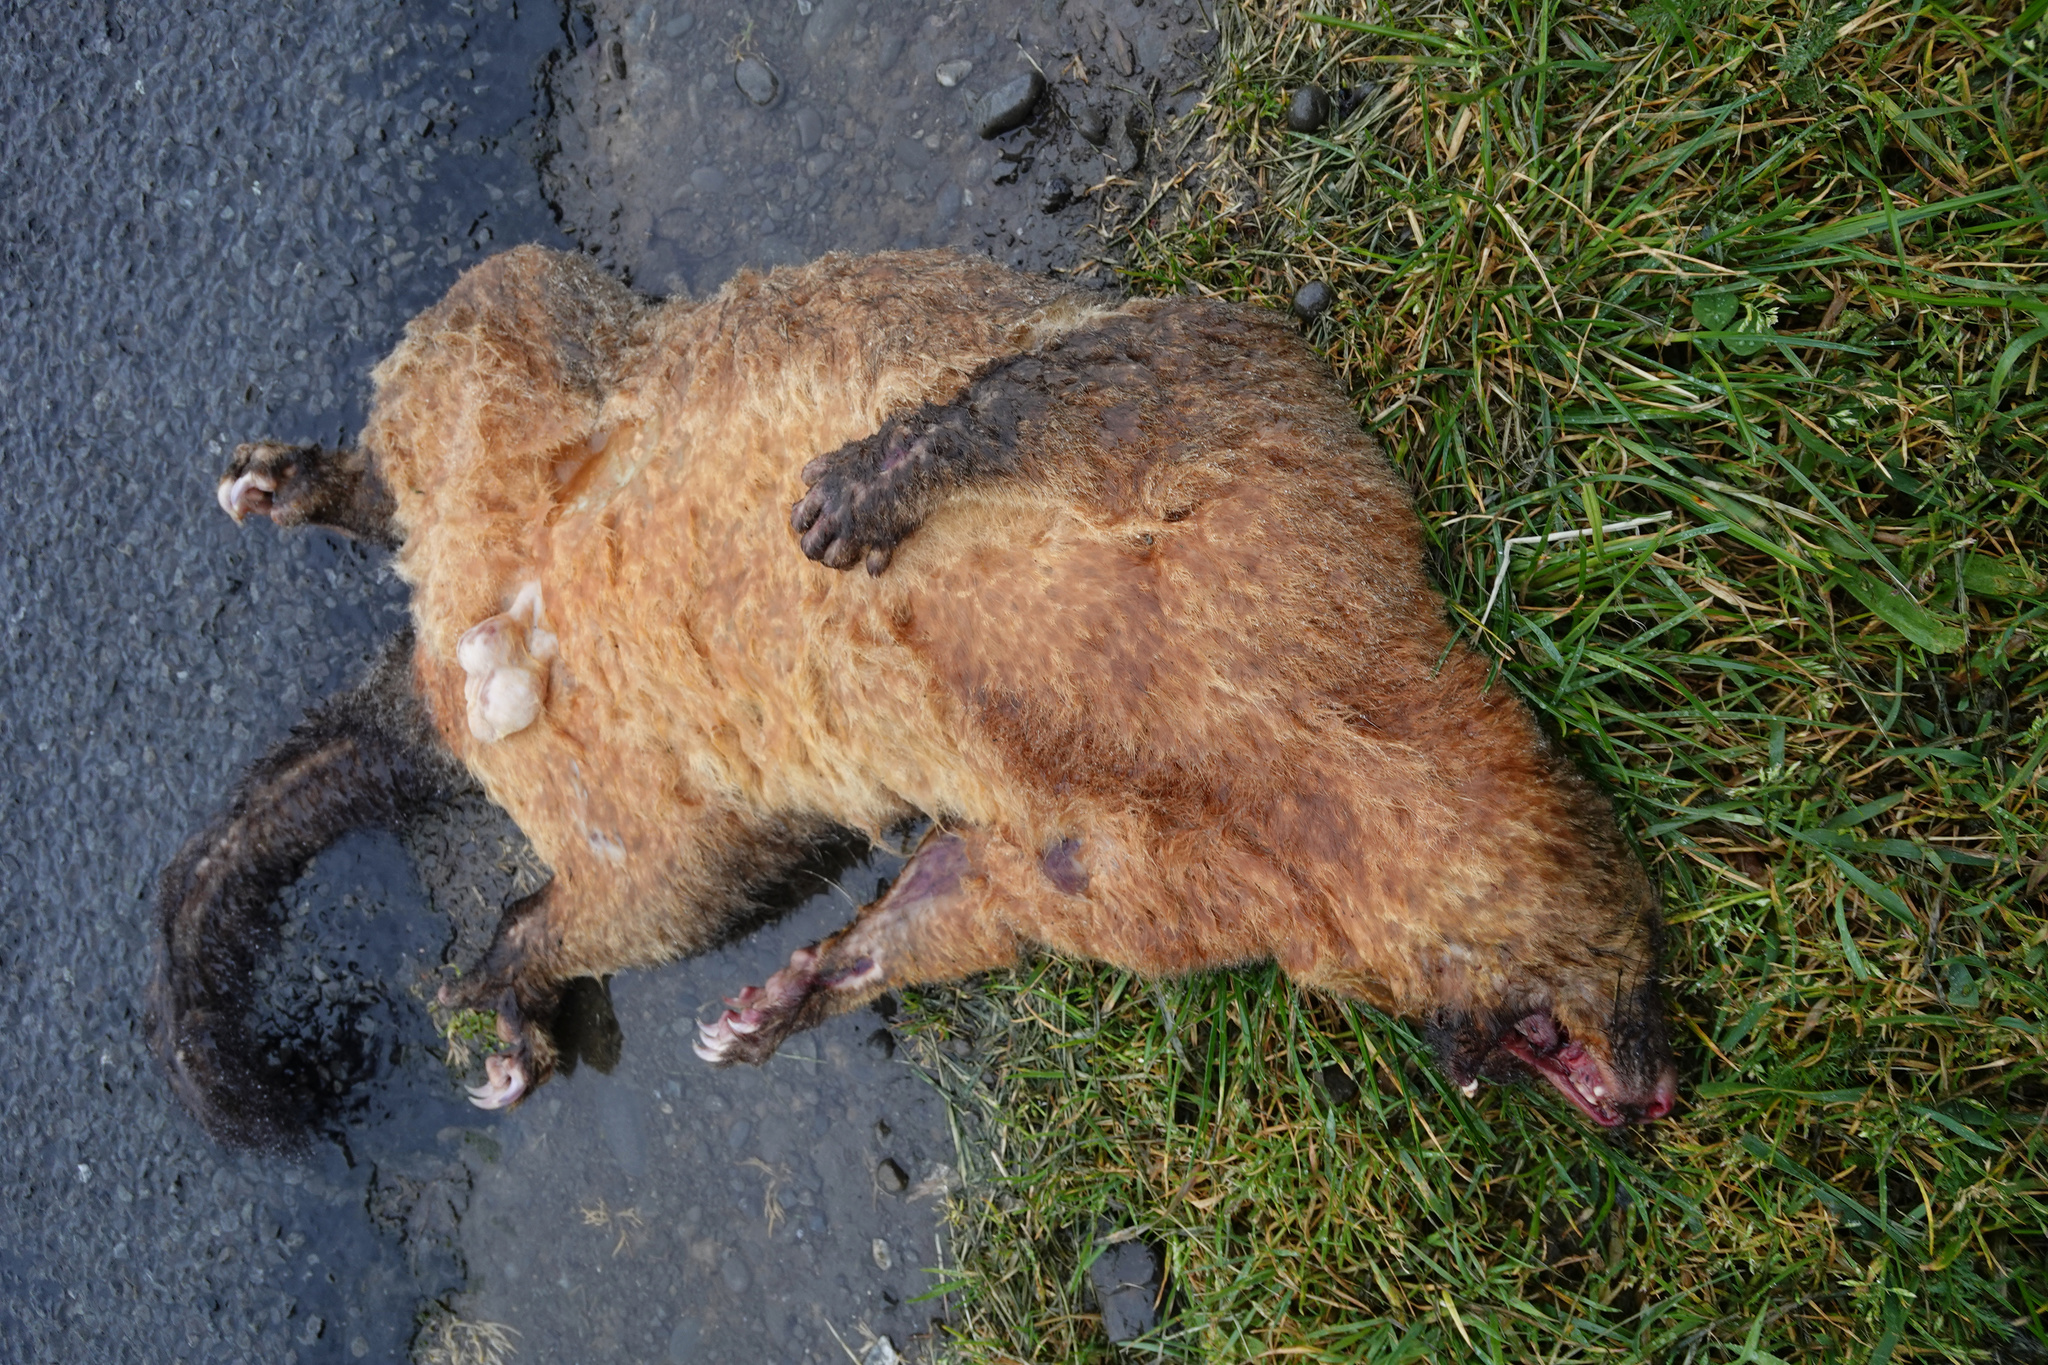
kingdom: Animalia
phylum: Chordata
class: Mammalia
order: Diprotodontia
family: Phalangeridae
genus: Trichosurus
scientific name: Trichosurus vulpecula
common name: Common brushtail
